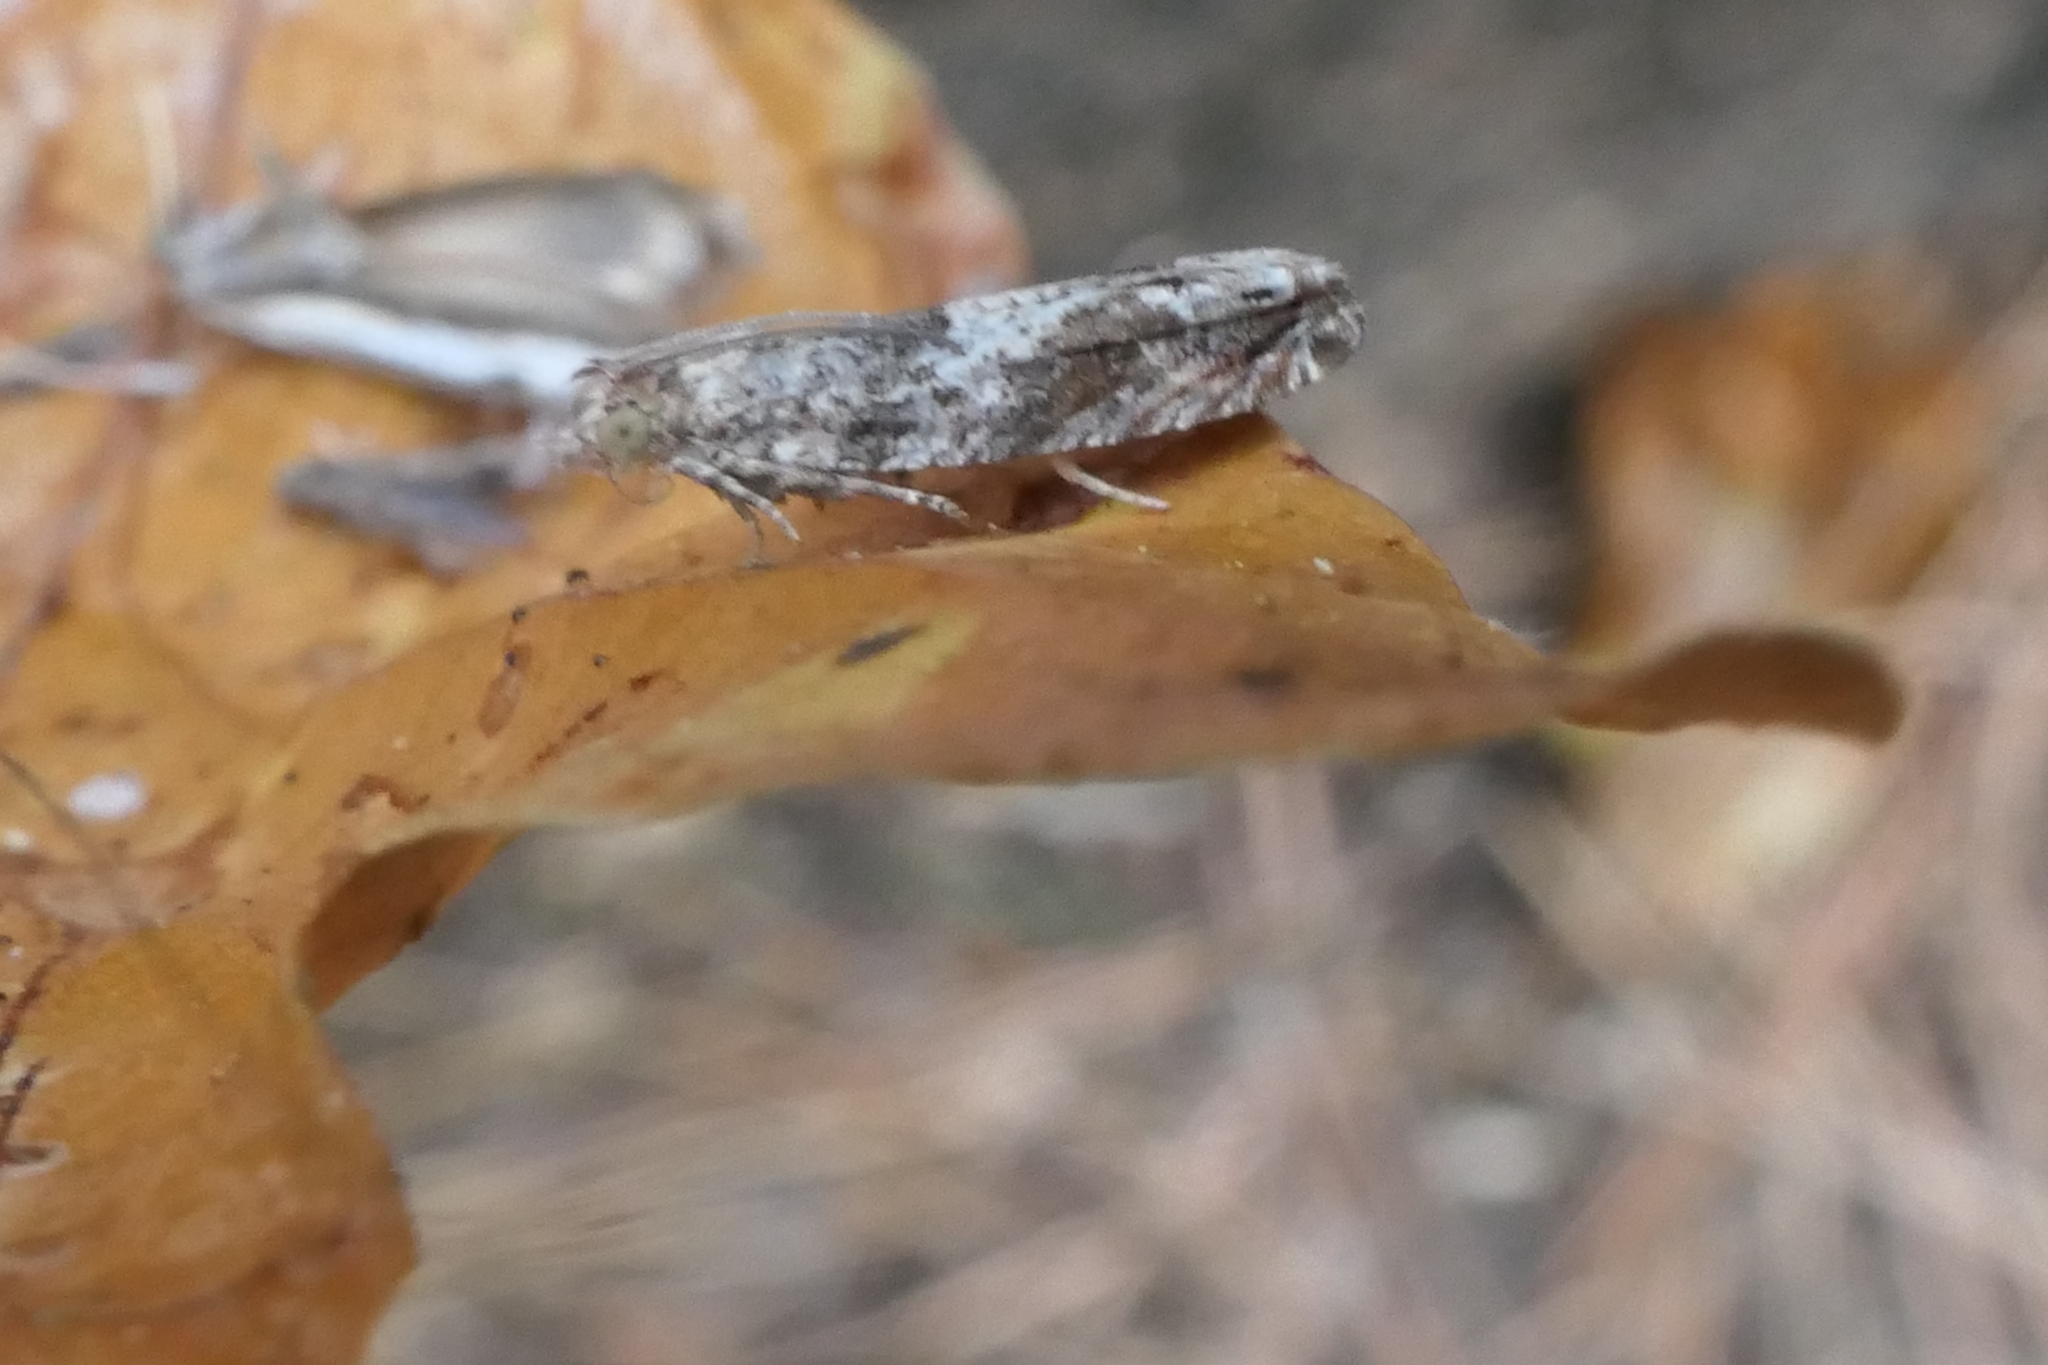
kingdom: Animalia
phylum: Arthropoda
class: Insecta
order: Lepidoptera
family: Tortricidae
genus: Crocidosema
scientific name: Crocidosema plebejana
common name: Southern bell
